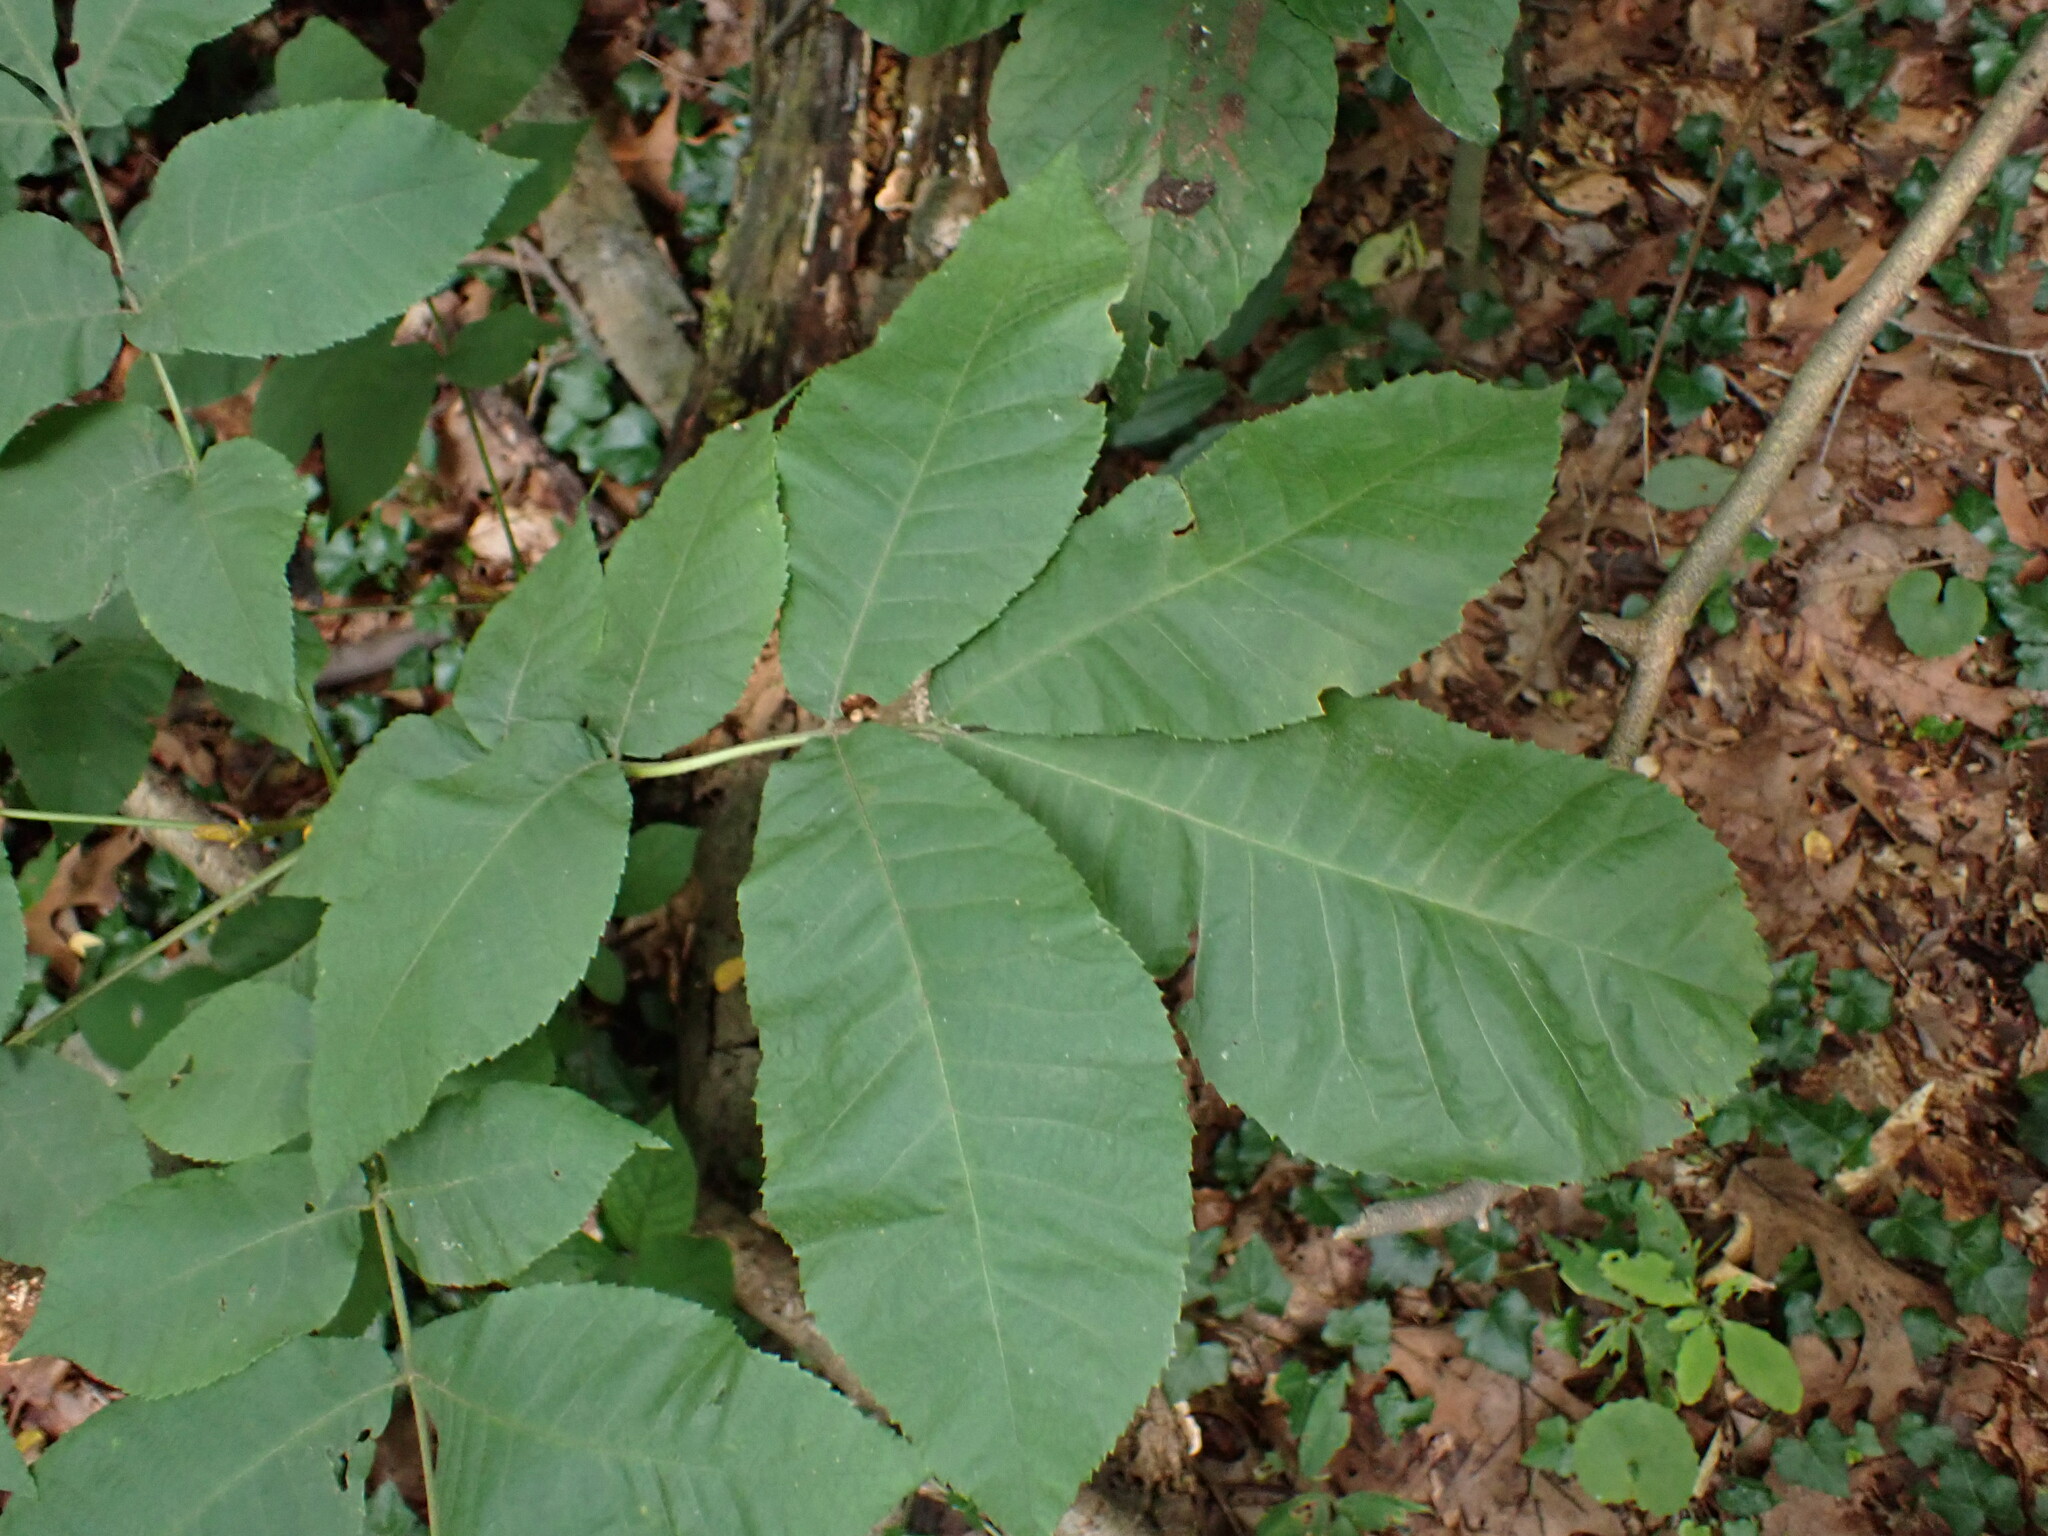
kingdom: Plantae
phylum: Tracheophyta
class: Magnoliopsida
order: Fagales
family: Juglandaceae
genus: Carya
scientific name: Carya cordiformis
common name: Bitternut hickory
